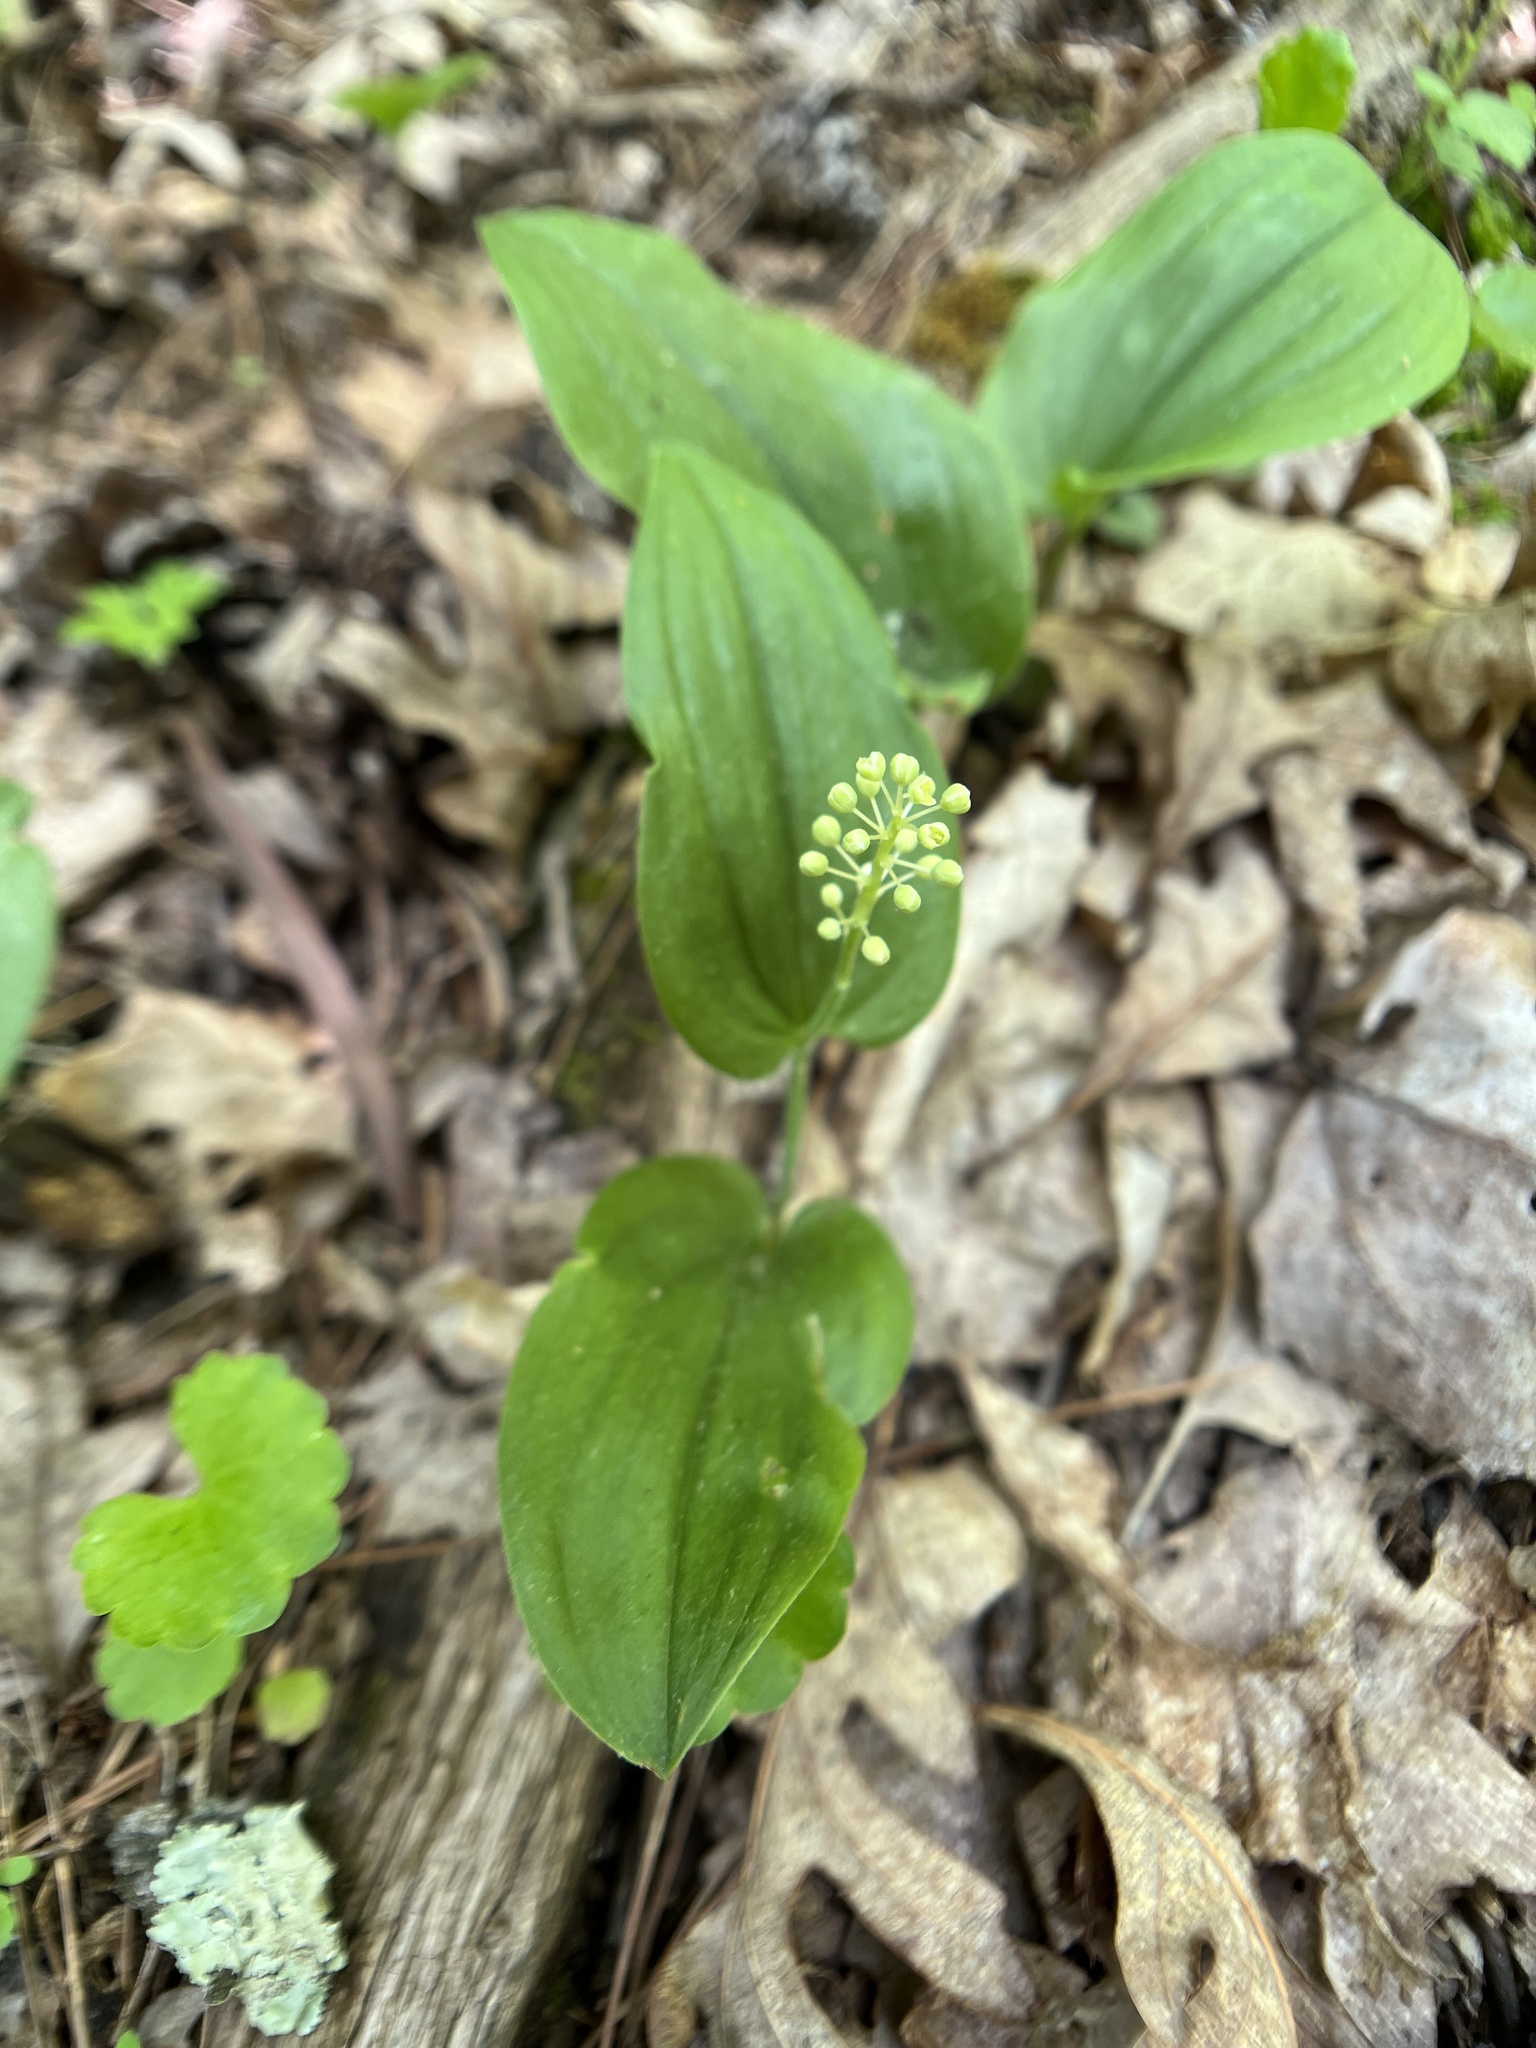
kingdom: Plantae
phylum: Tracheophyta
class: Liliopsida
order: Asparagales
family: Asparagaceae
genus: Maianthemum
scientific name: Maianthemum canadense
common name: False lily-of-the-valley
